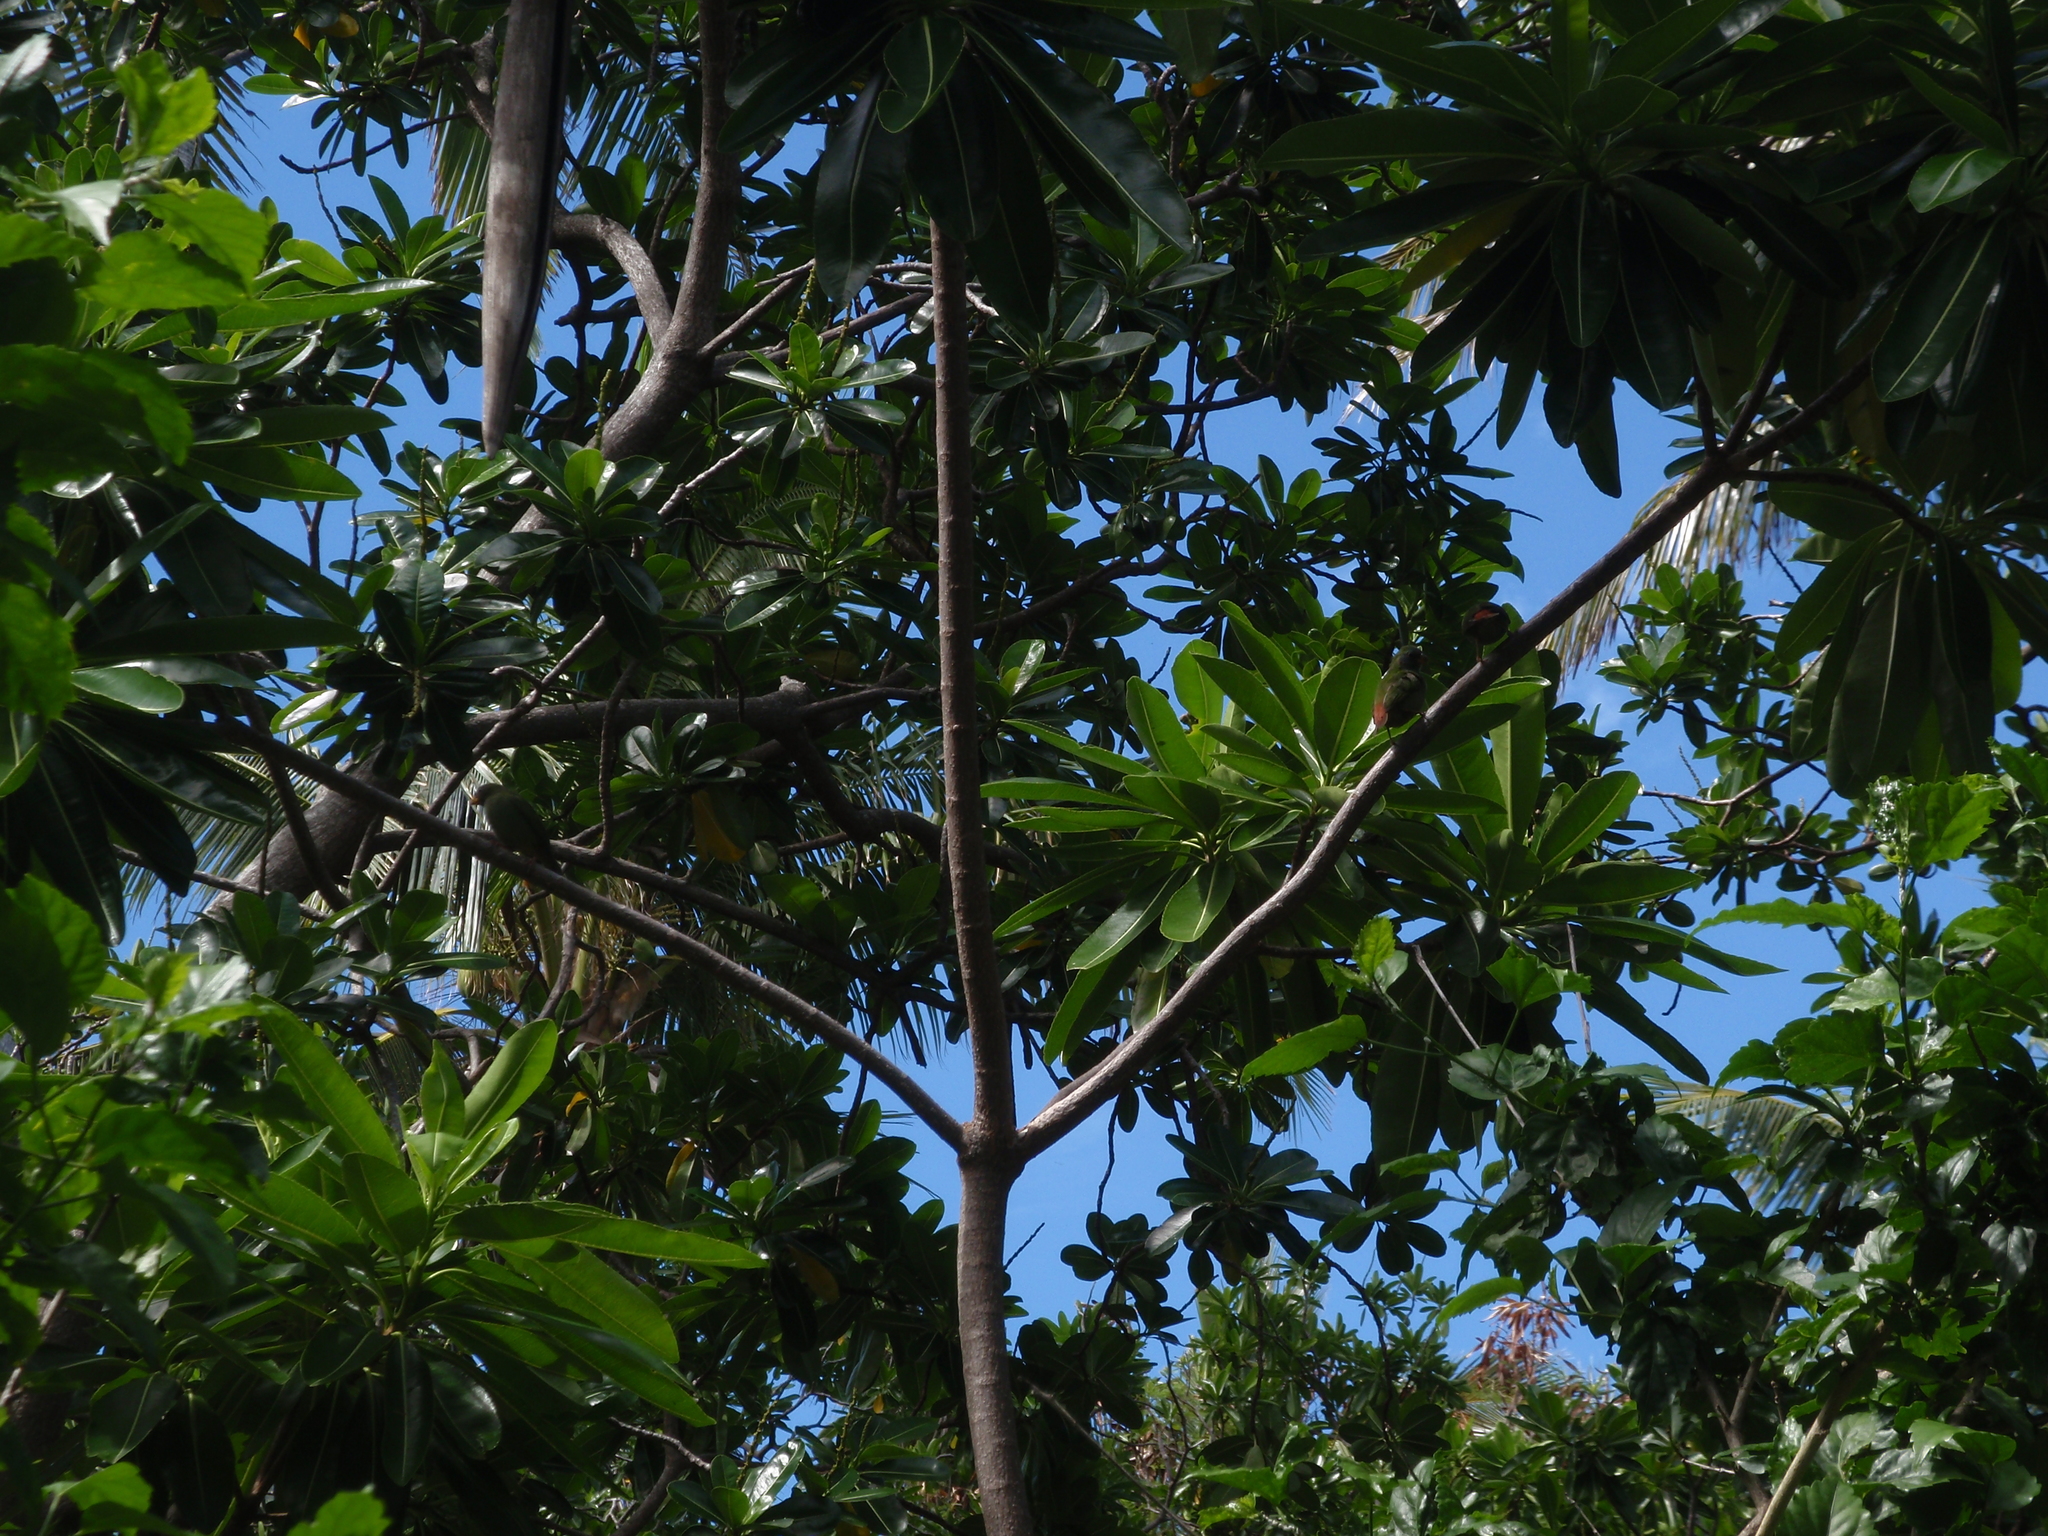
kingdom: Animalia
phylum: Chordata
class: Aves
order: Passeriformes
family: Estrildidae
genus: Erythrura
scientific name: Erythrura pealii
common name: Fiji parrotfinch
